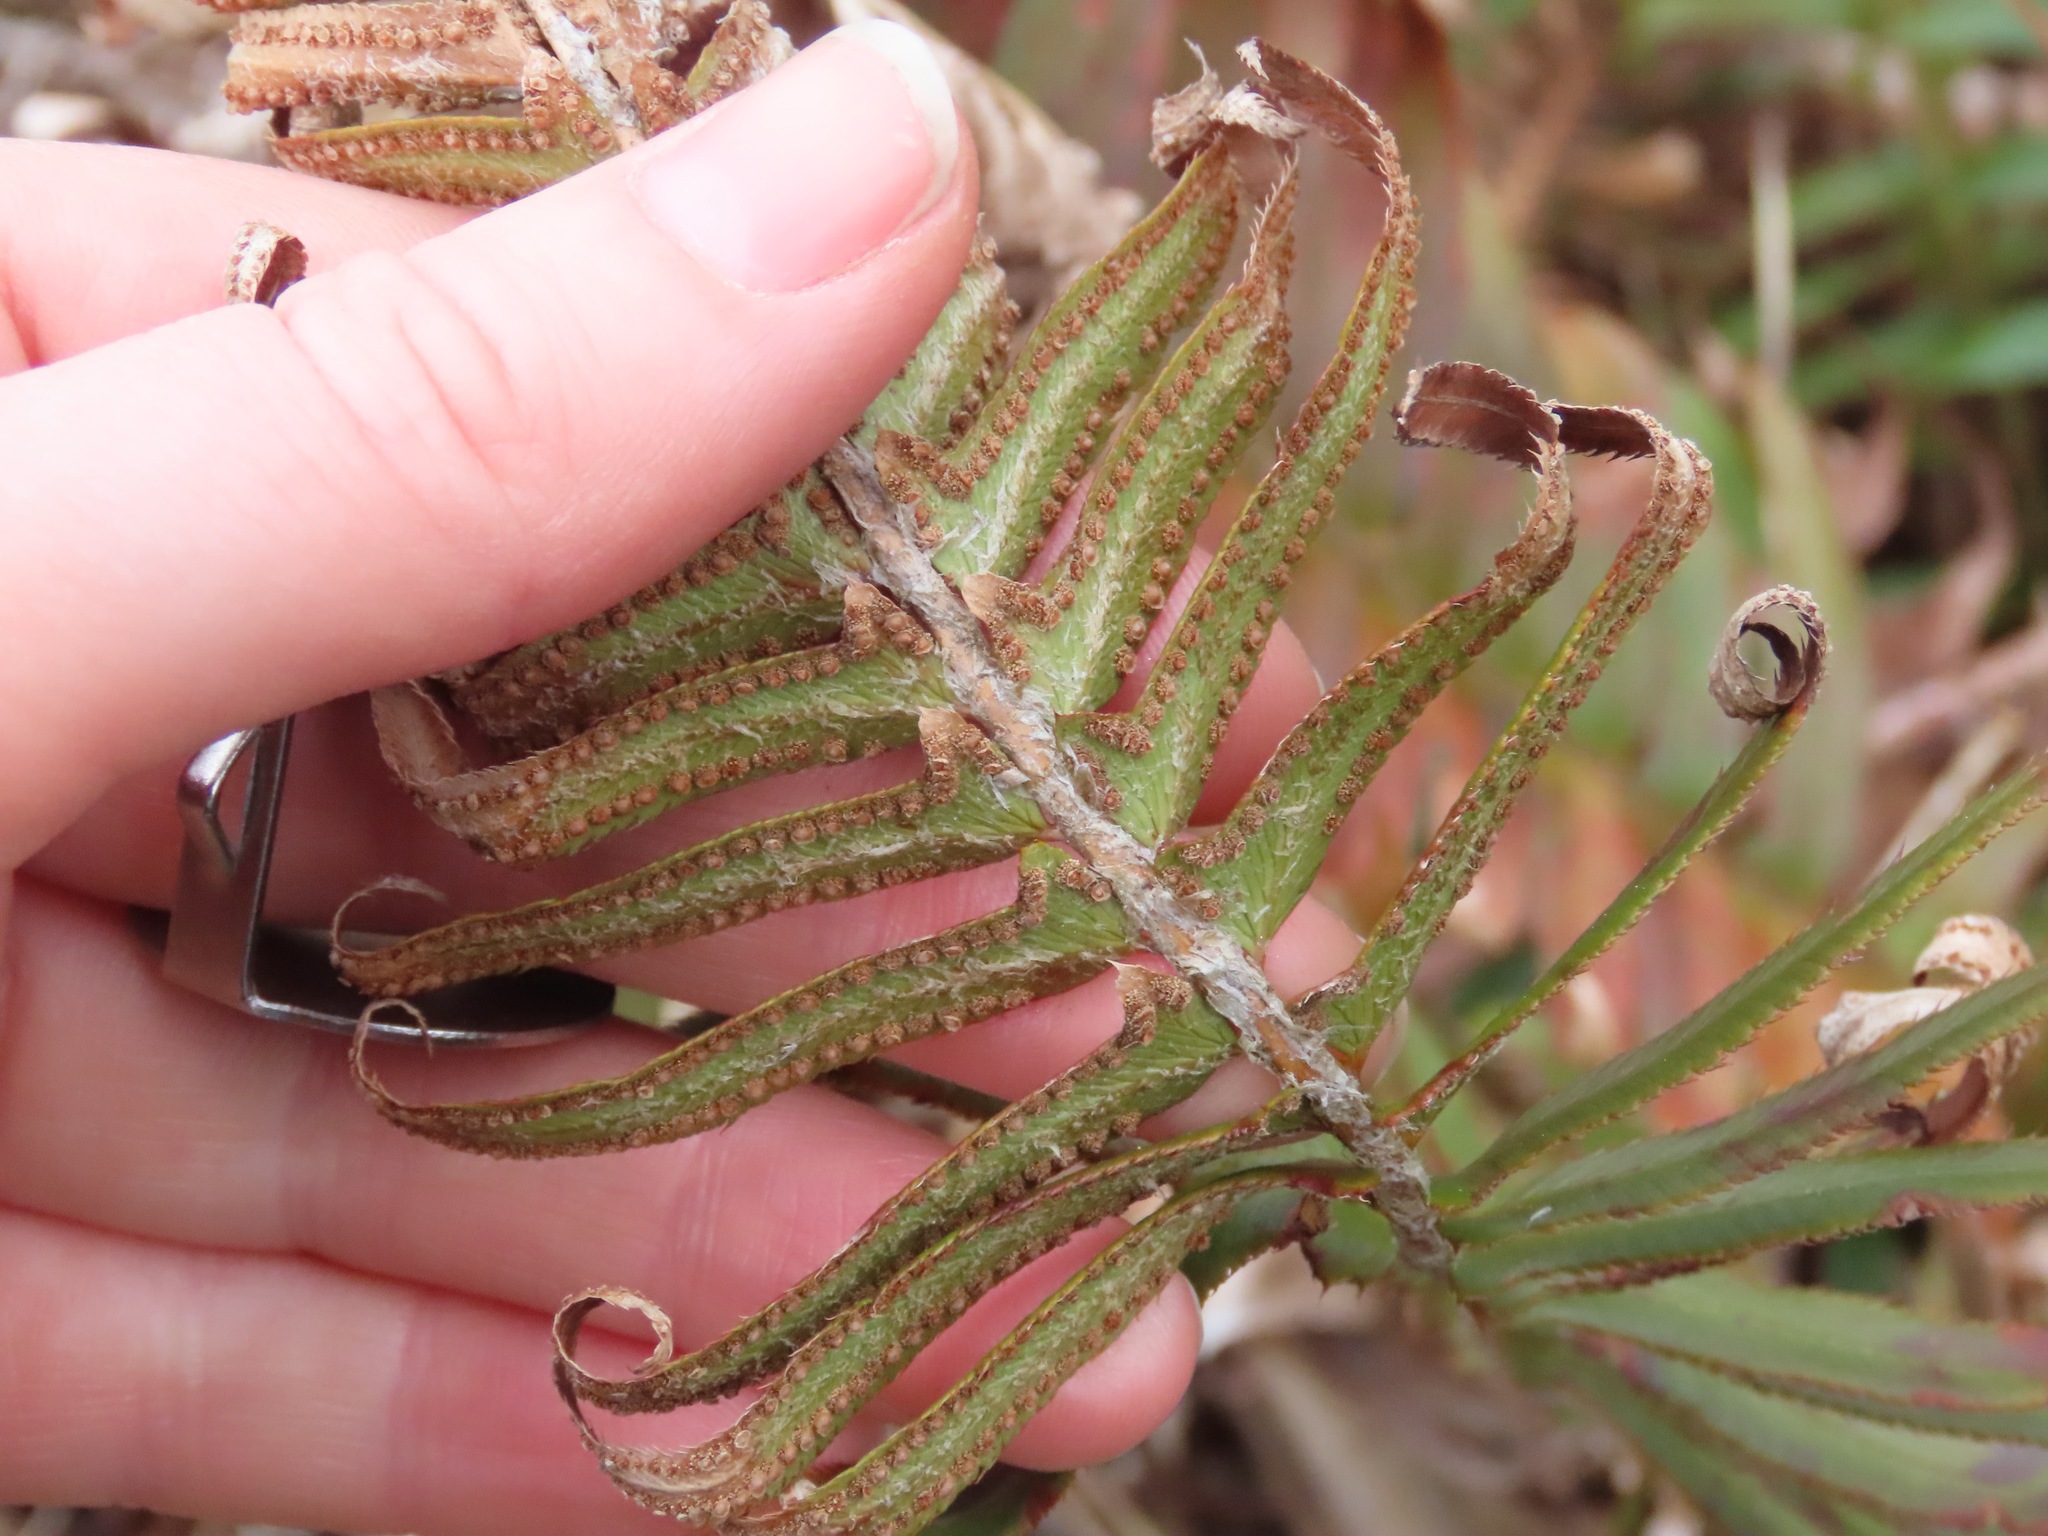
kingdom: Plantae
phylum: Tracheophyta
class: Polypodiopsida
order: Polypodiales
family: Dryopteridaceae
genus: Polystichum
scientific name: Polystichum munitum
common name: Western sword-fern
